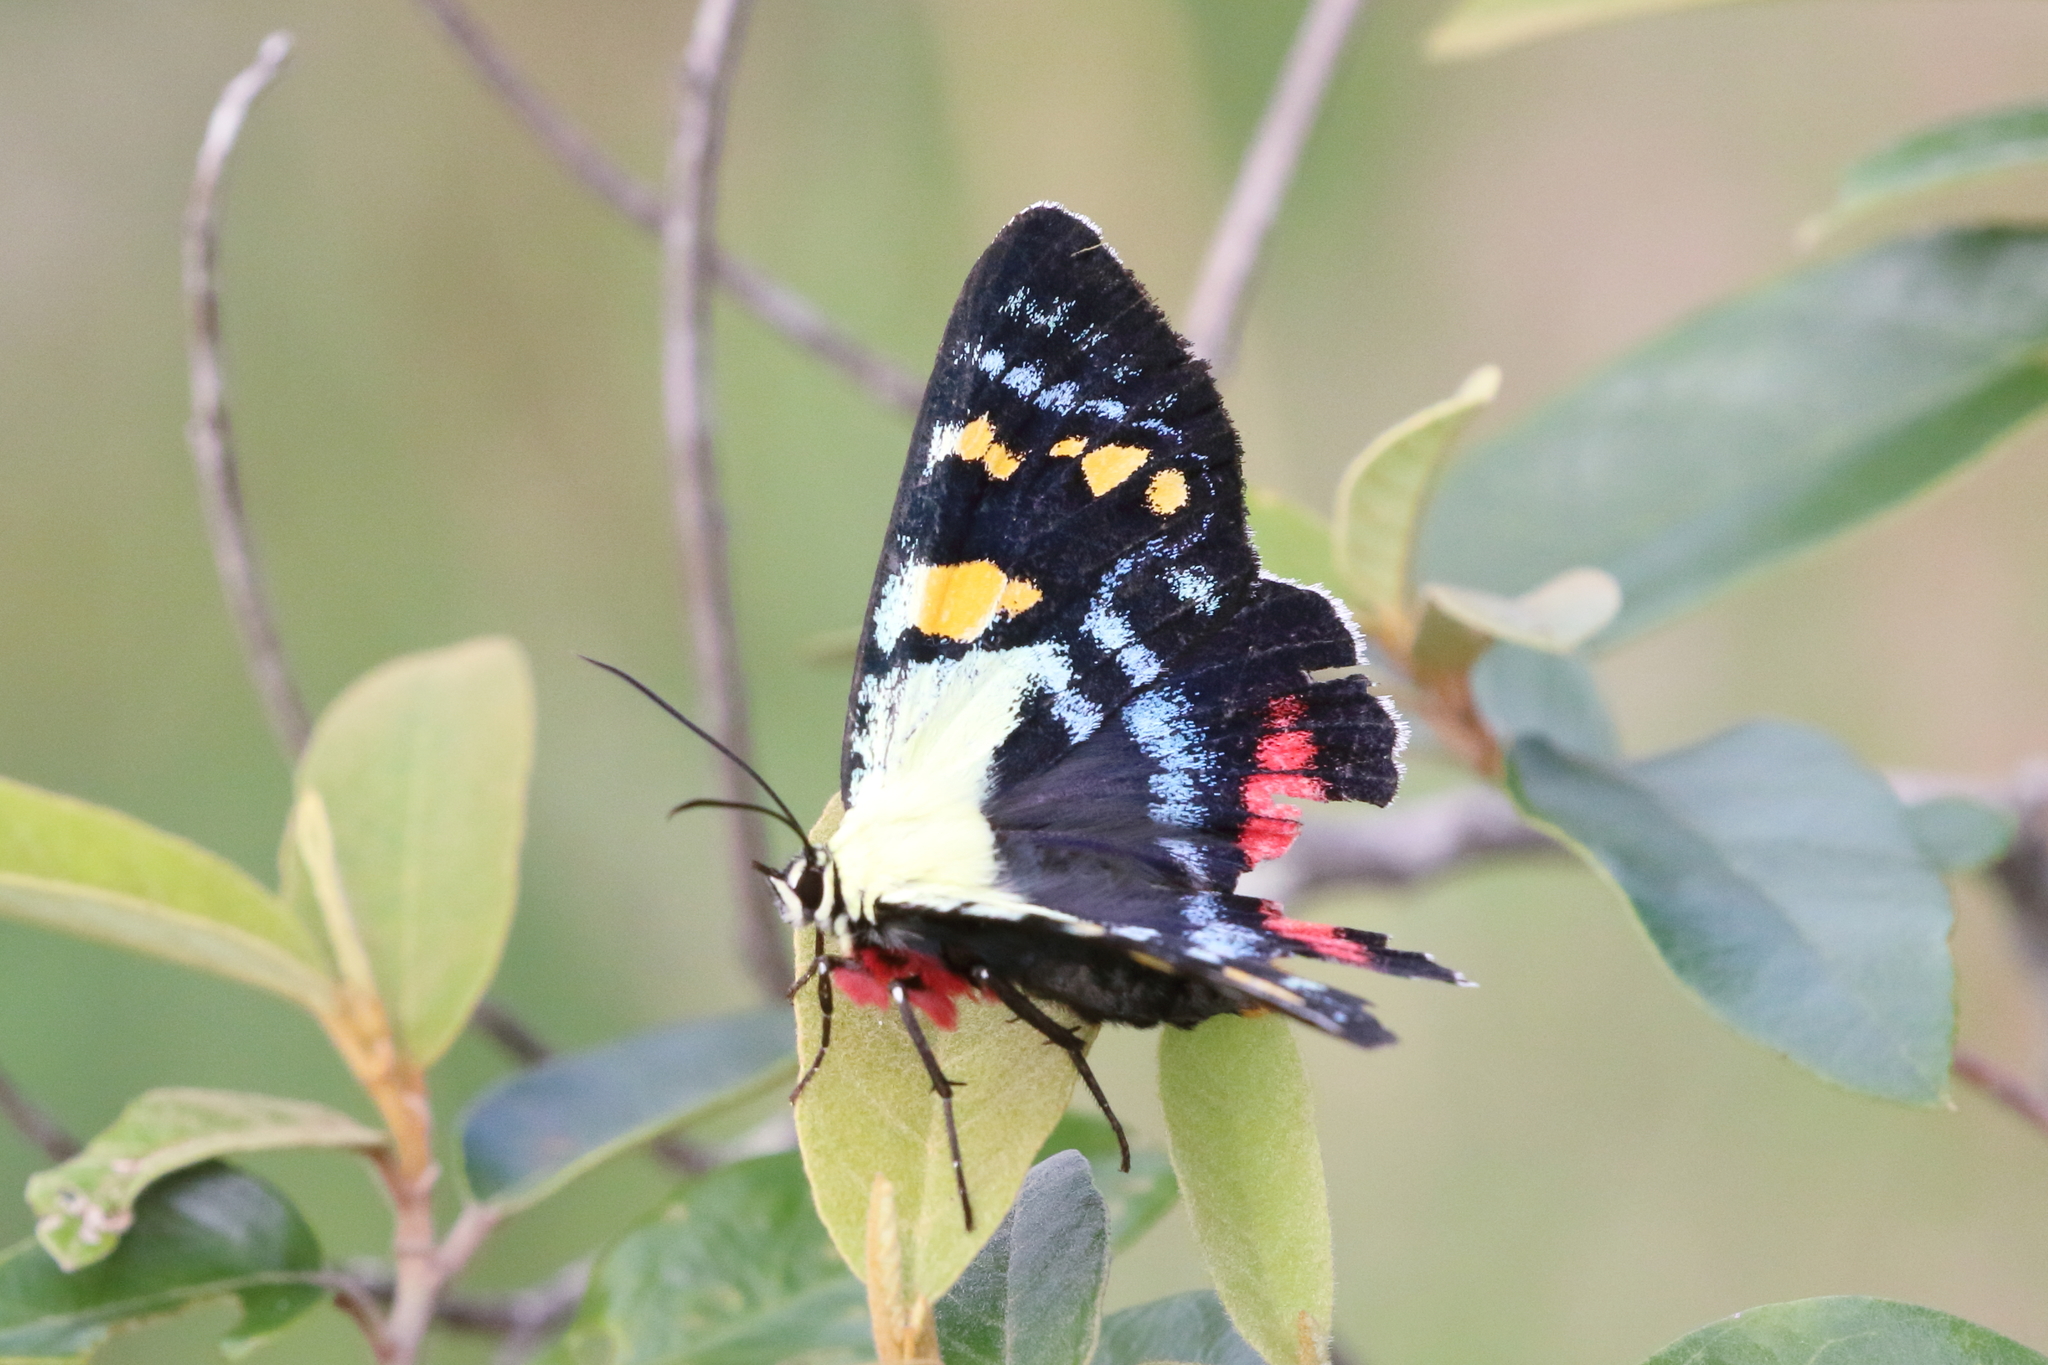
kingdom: Animalia
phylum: Arthropoda
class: Insecta
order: Lepidoptera
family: Noctuidae
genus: Agarista
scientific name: Agarista agricola
